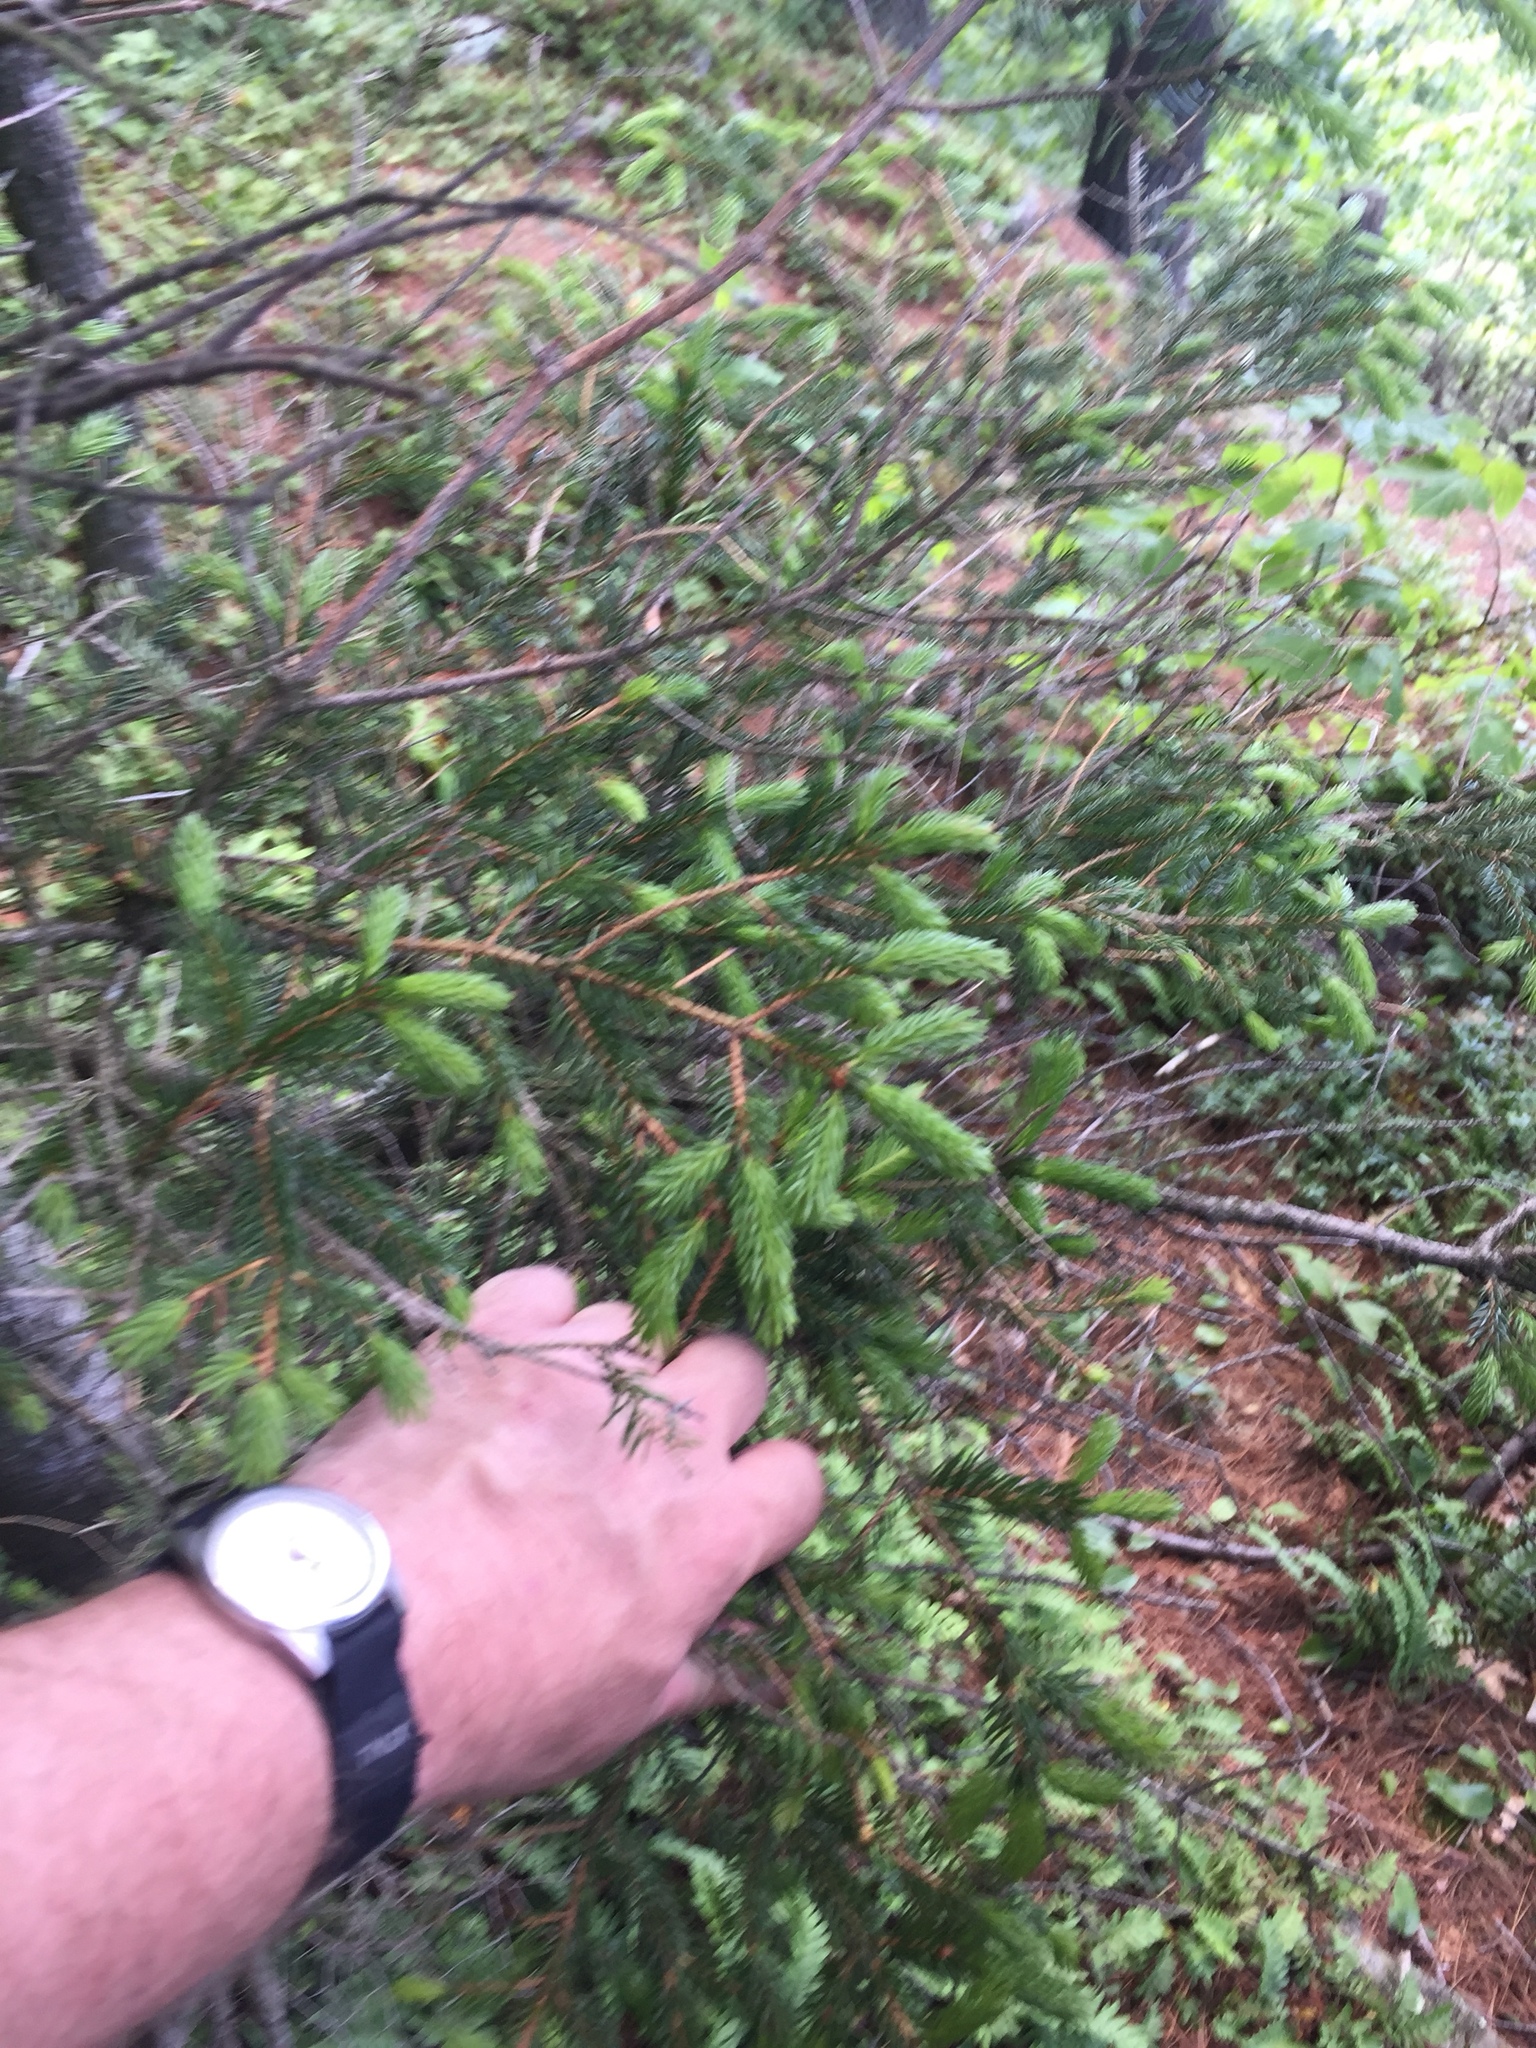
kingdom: Plantae
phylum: Tracheophyta
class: Pinopsida
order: Pinales
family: Pinaceae
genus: Picea
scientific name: Picea rubens
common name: Red spruce
